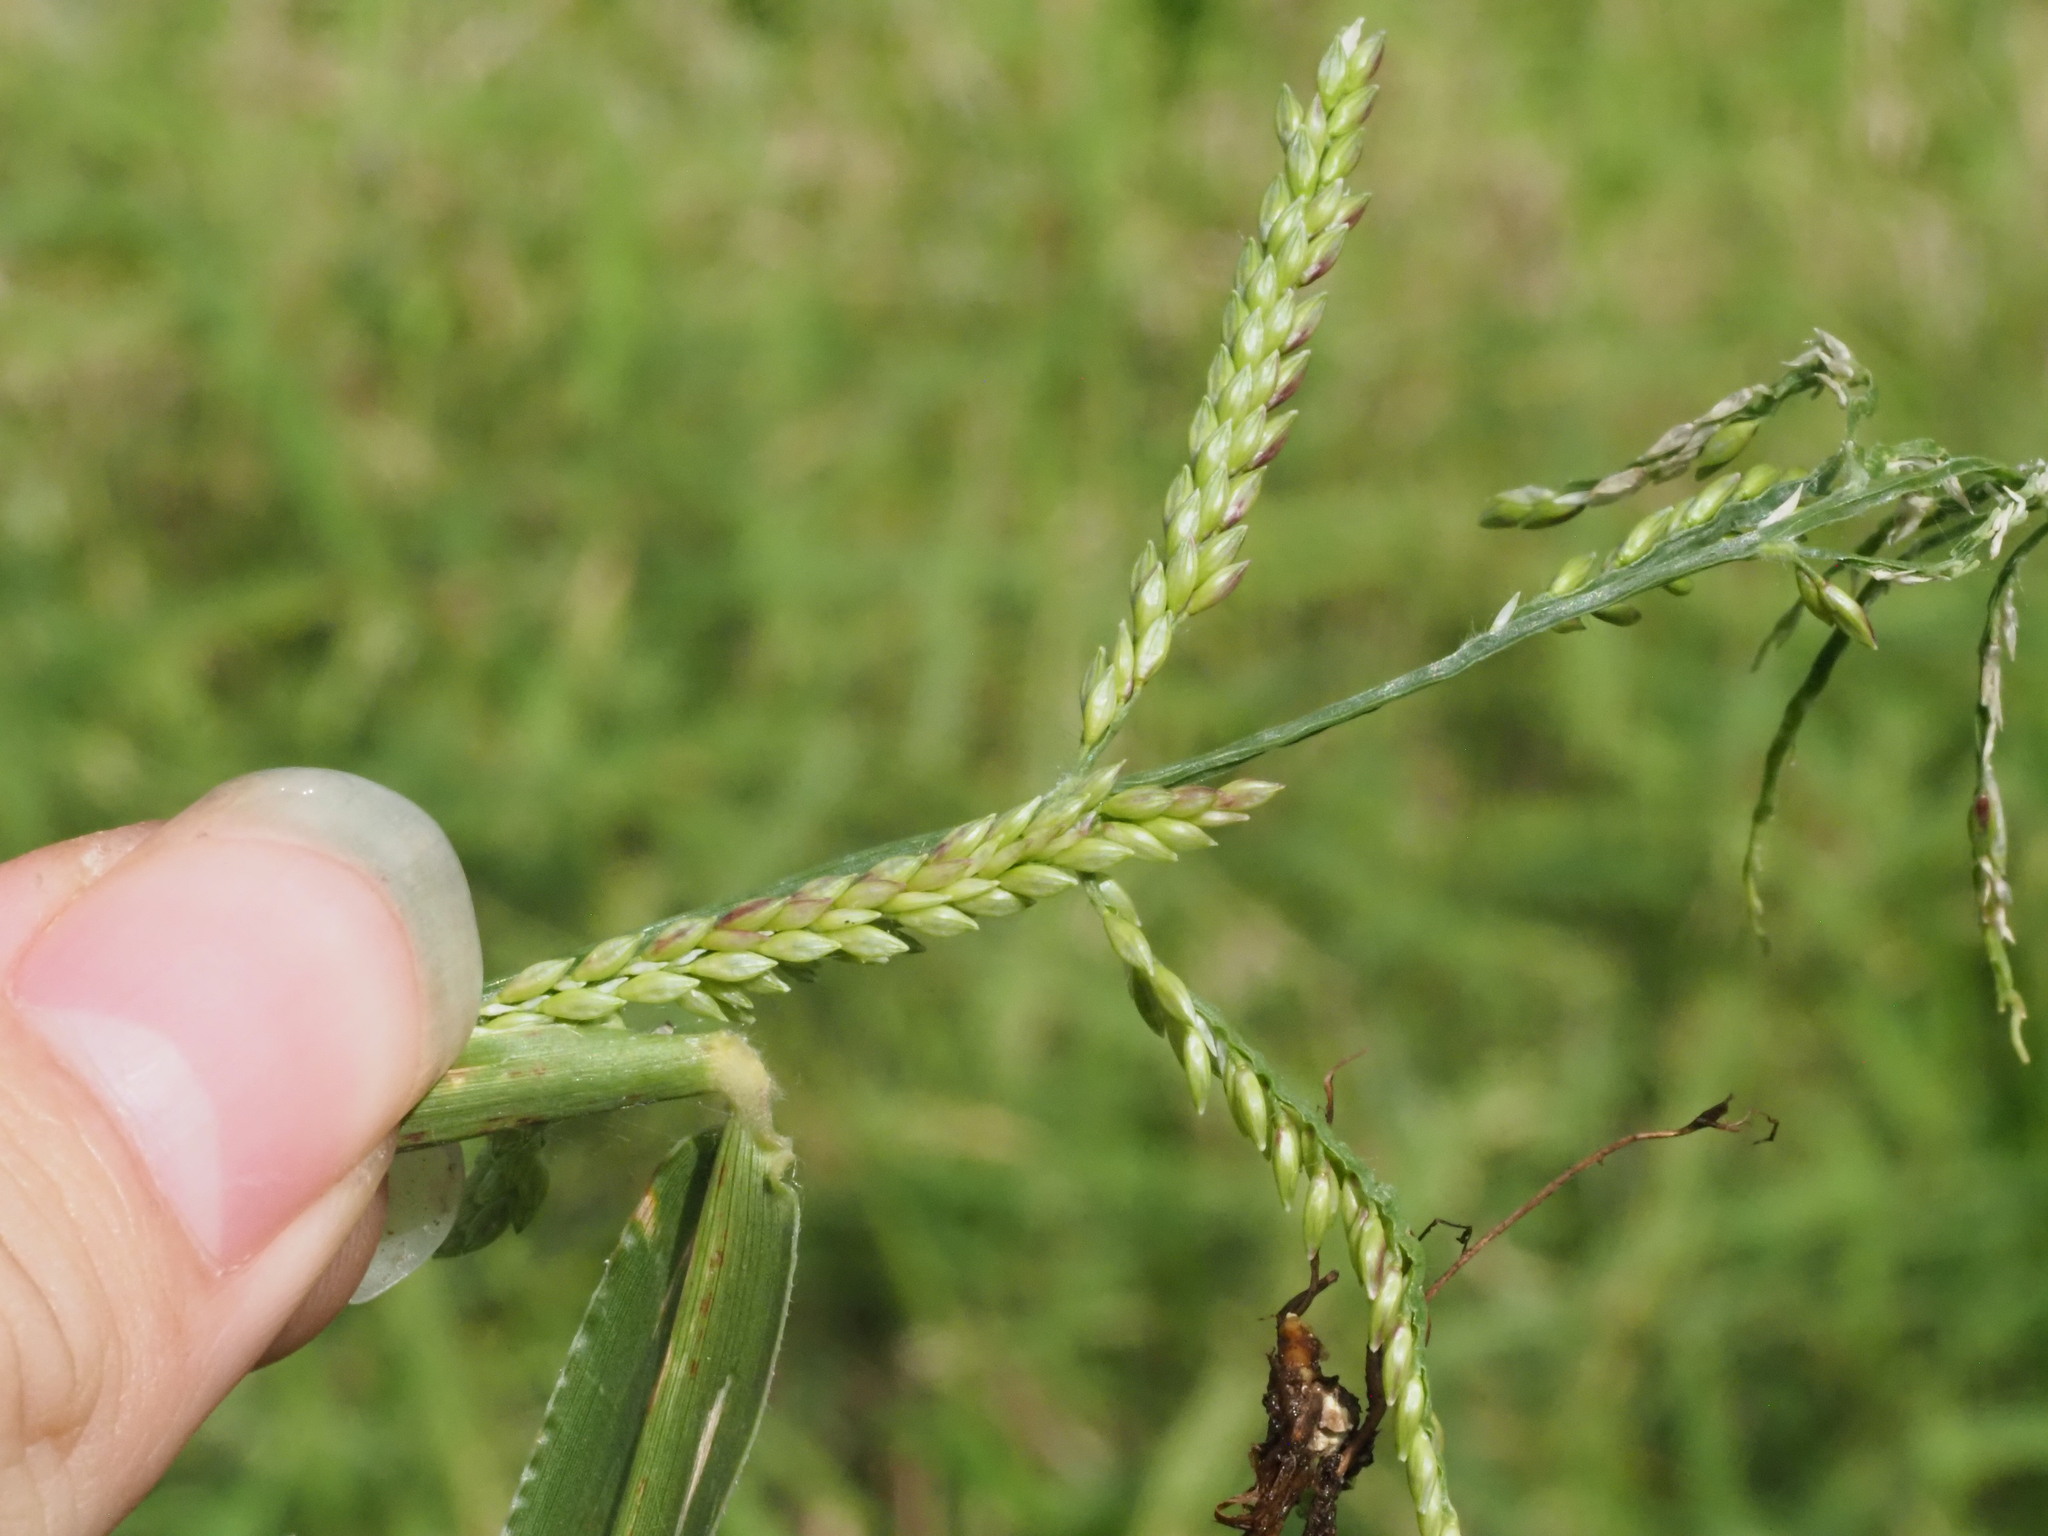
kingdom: Plantae
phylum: Tracheophyta
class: Liliopsida
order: Poales
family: Poaceae
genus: Urochloa
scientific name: Urochloa mutica
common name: Para grass
